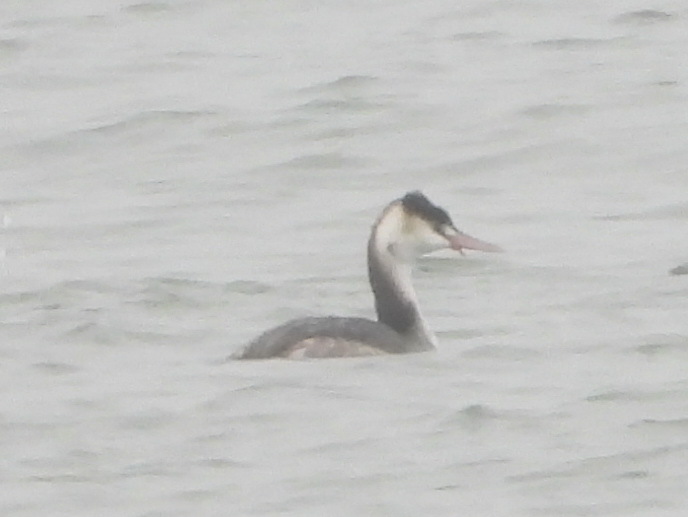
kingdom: Animalia
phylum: Chordata
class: Aves
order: Podicipediformes
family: Podicipedidae
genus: Podiceps
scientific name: Podiceps cristatus
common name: Great crested grebe
